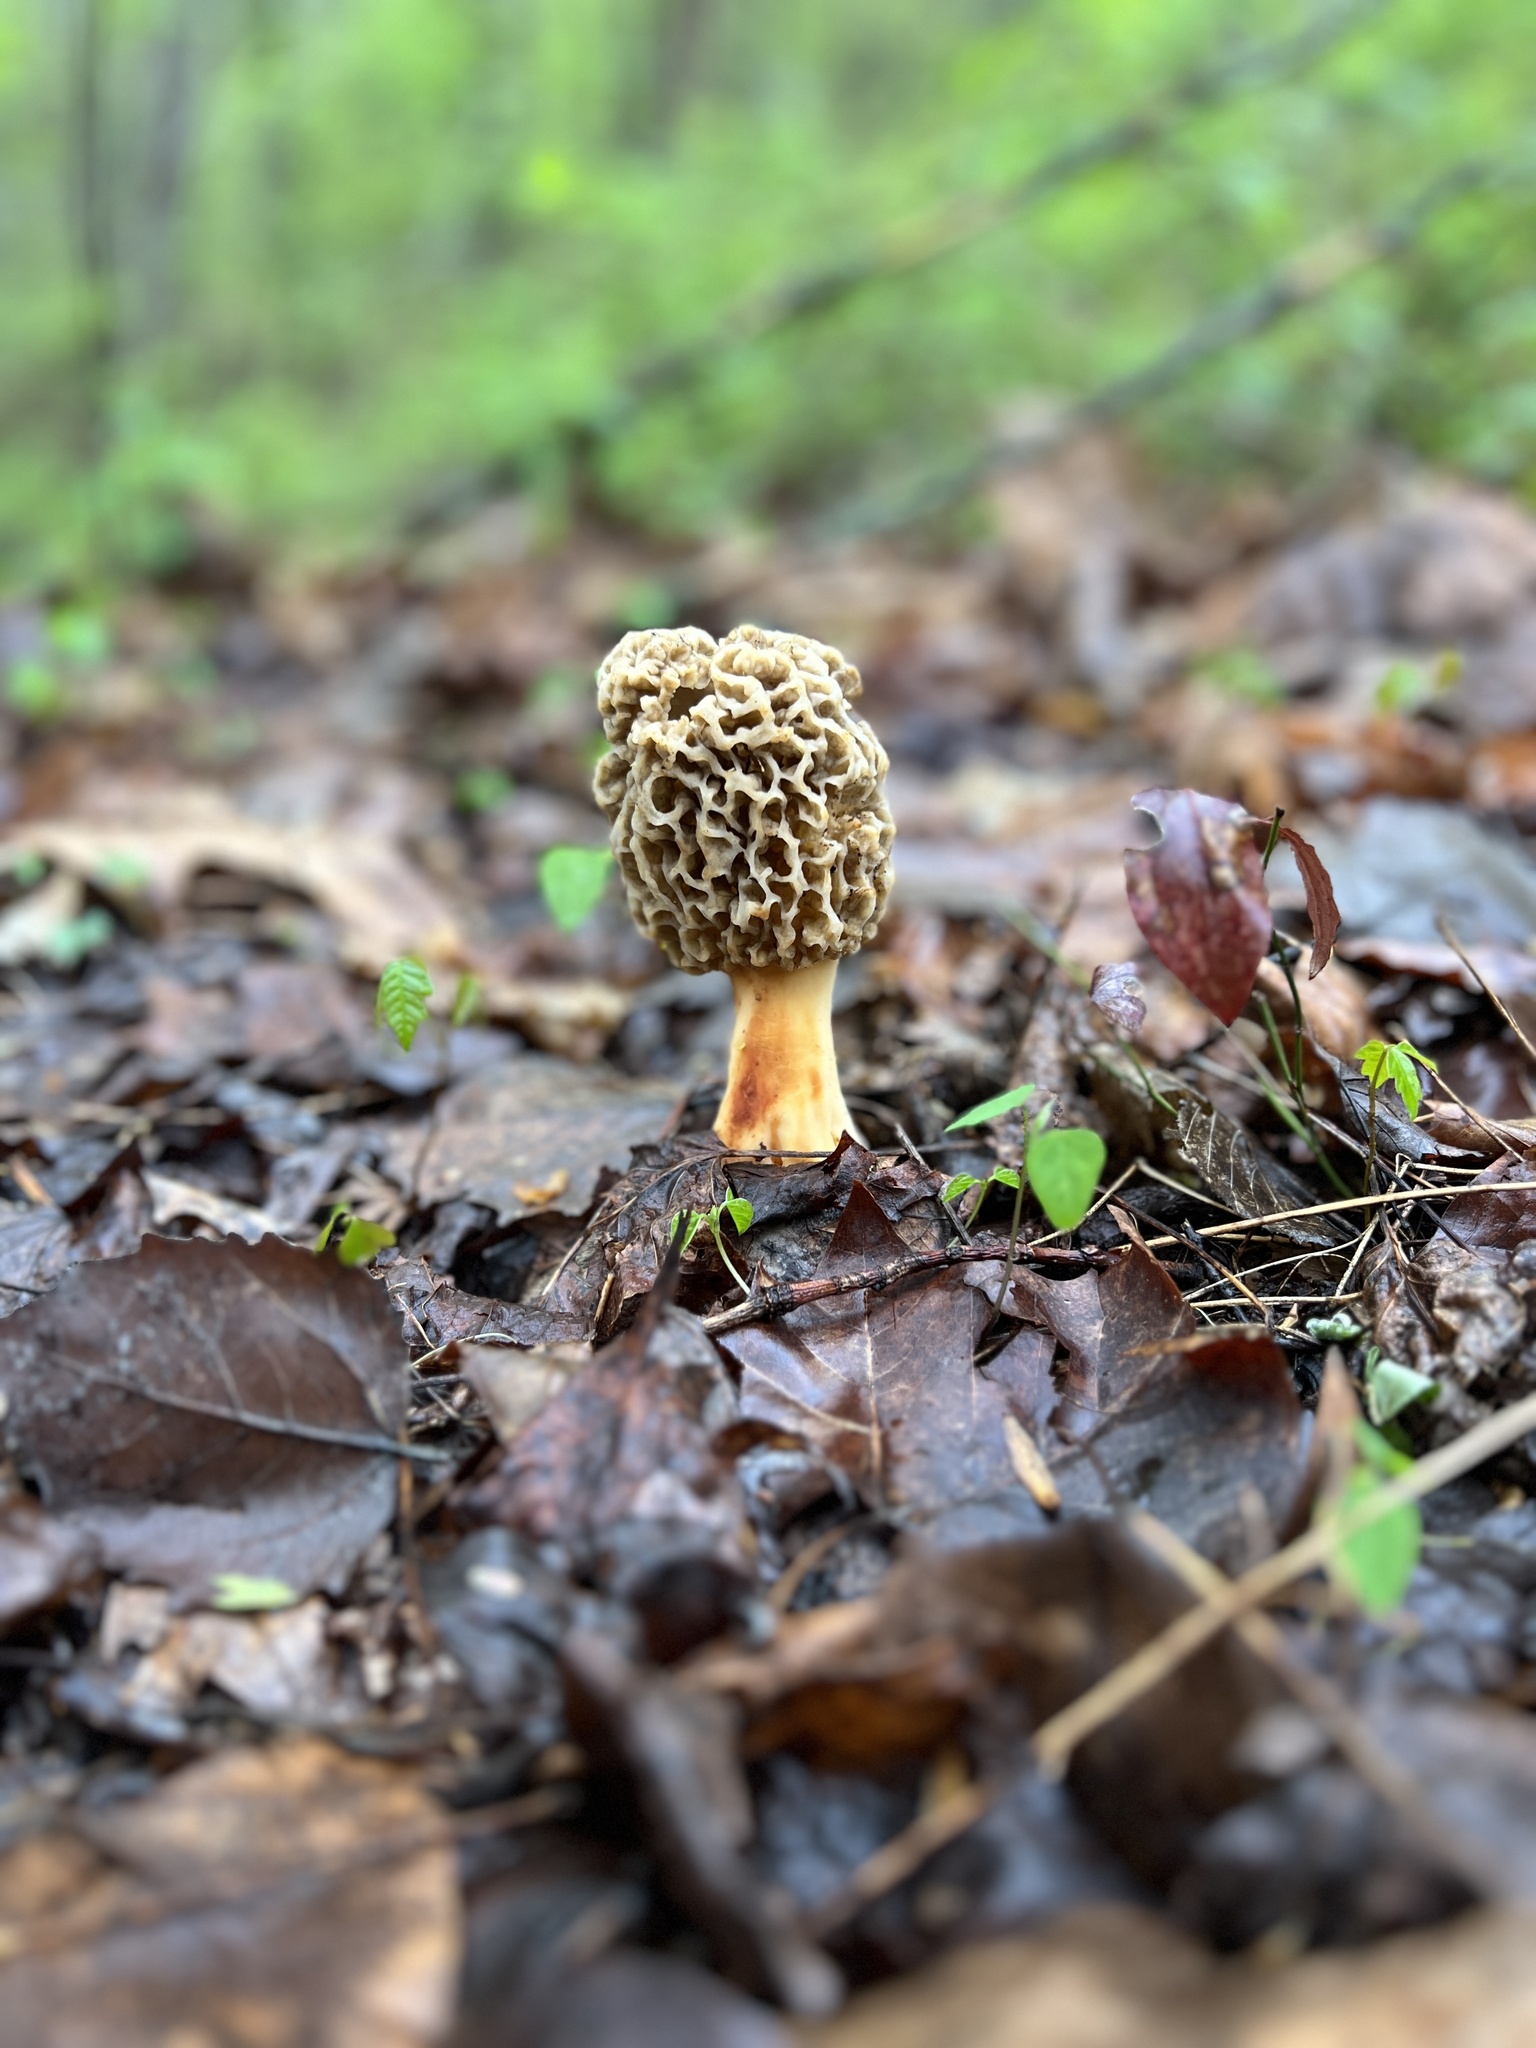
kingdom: Fungi
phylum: Ascomycota
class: Pezizomycetes
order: Pezizales
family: Morchellaceae
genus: Morchella
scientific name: Morchella americana
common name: White morel
